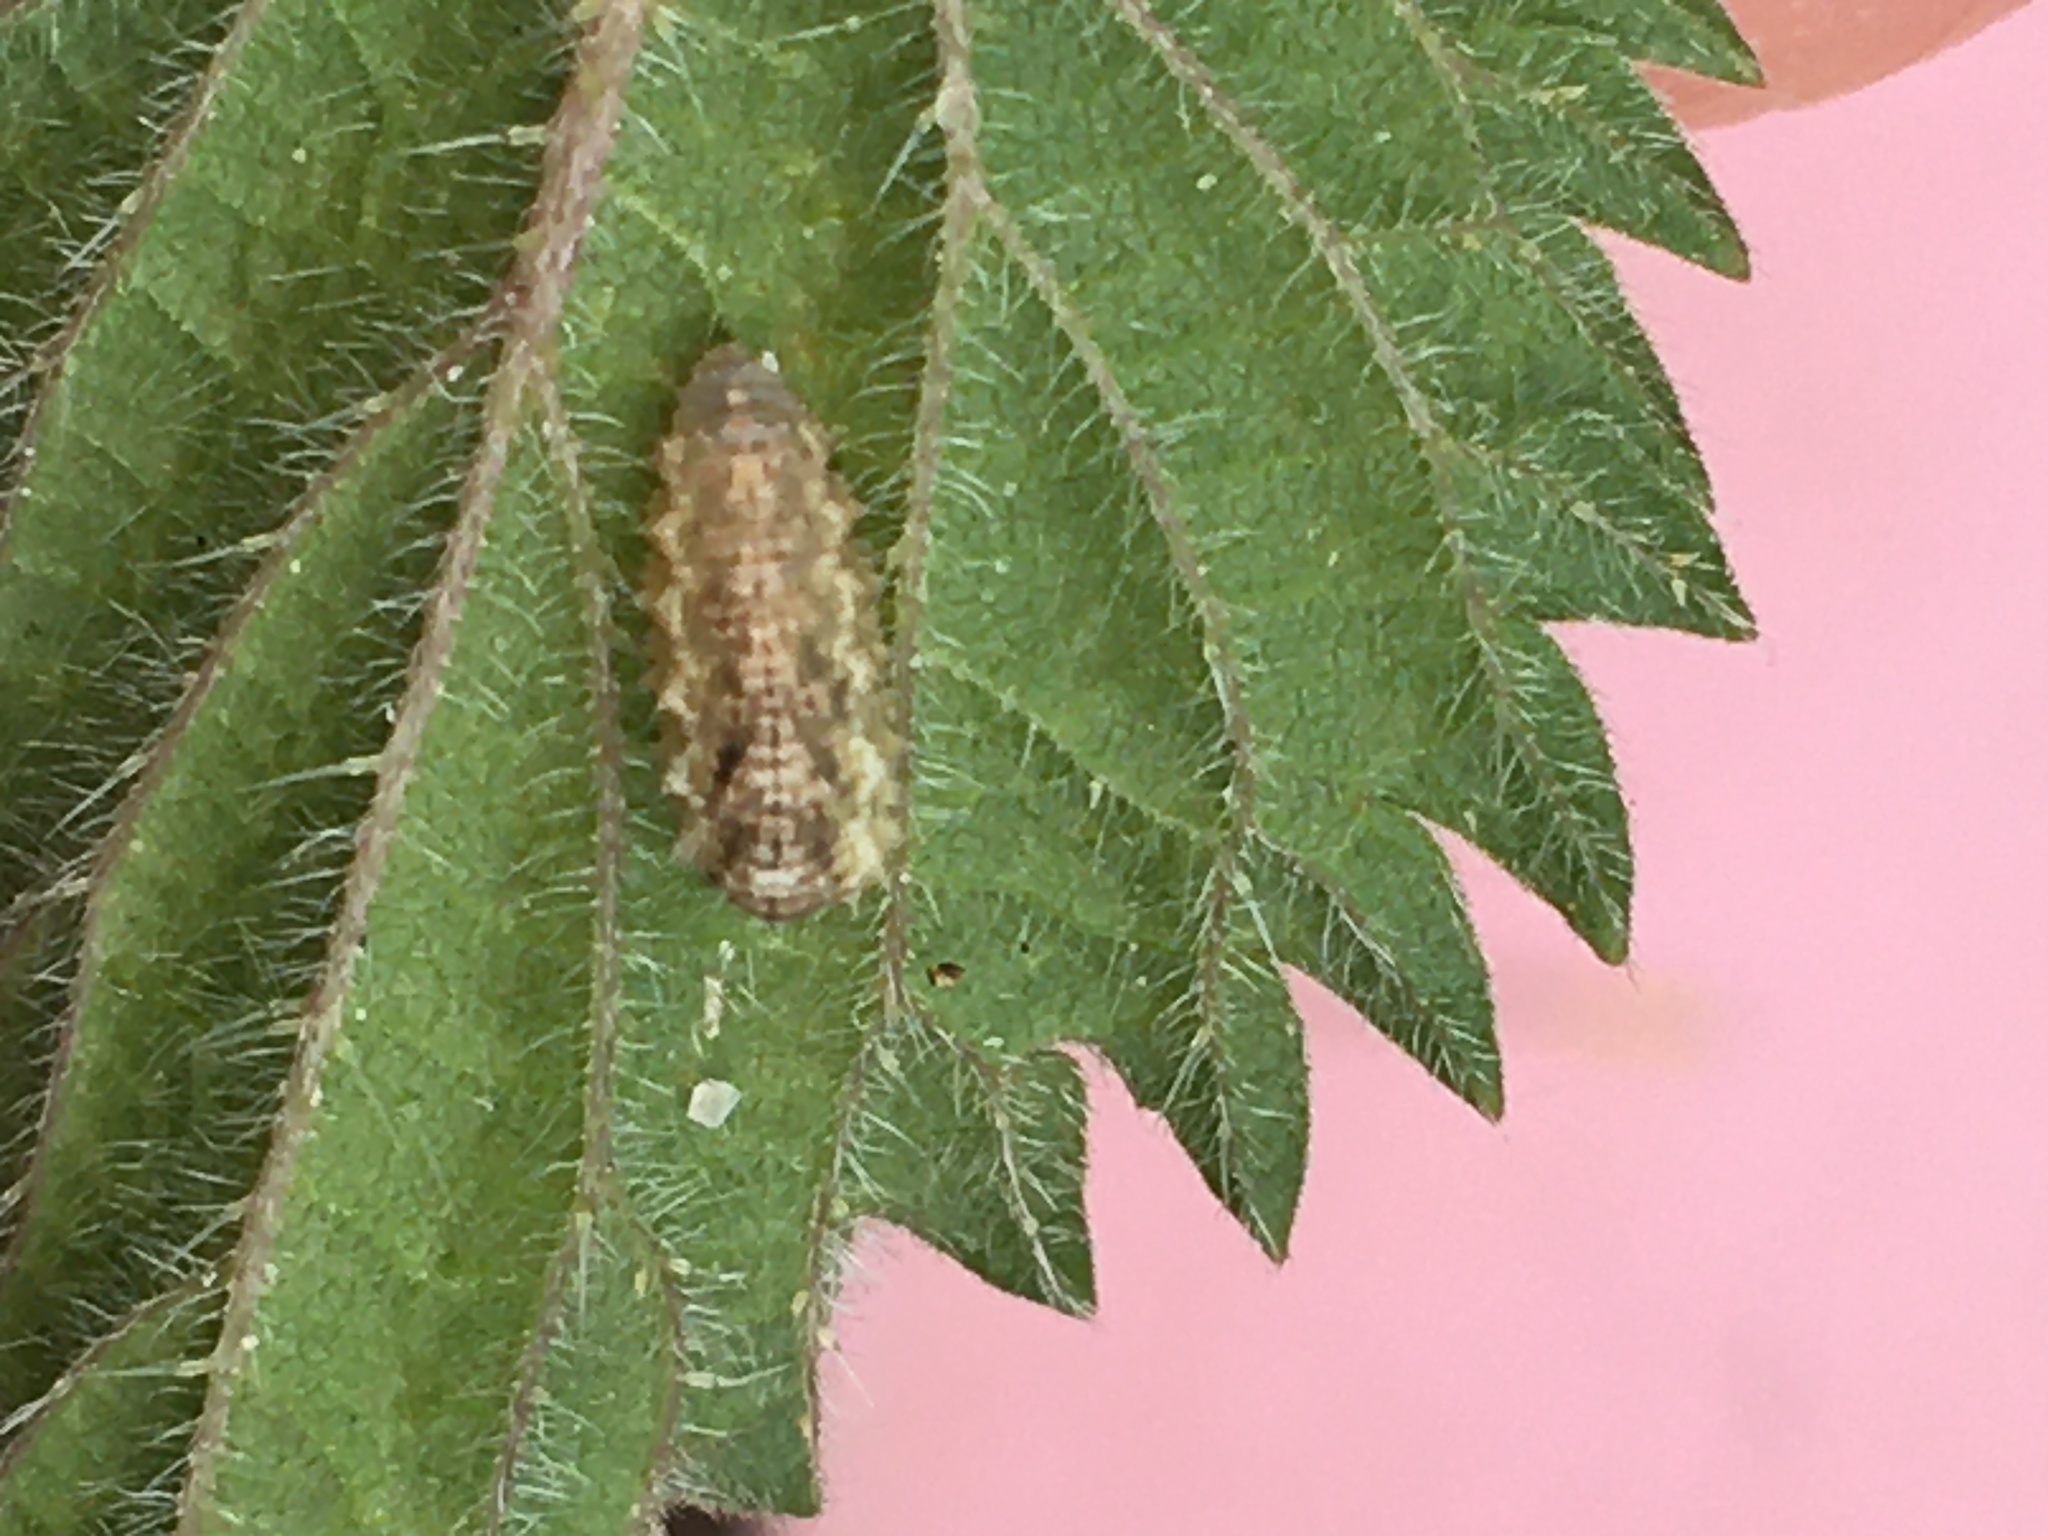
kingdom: Animalia
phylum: Arthropoda
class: Insecta
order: Diptera
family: Syrphidae
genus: Eupeodes
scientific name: Eupeodes
